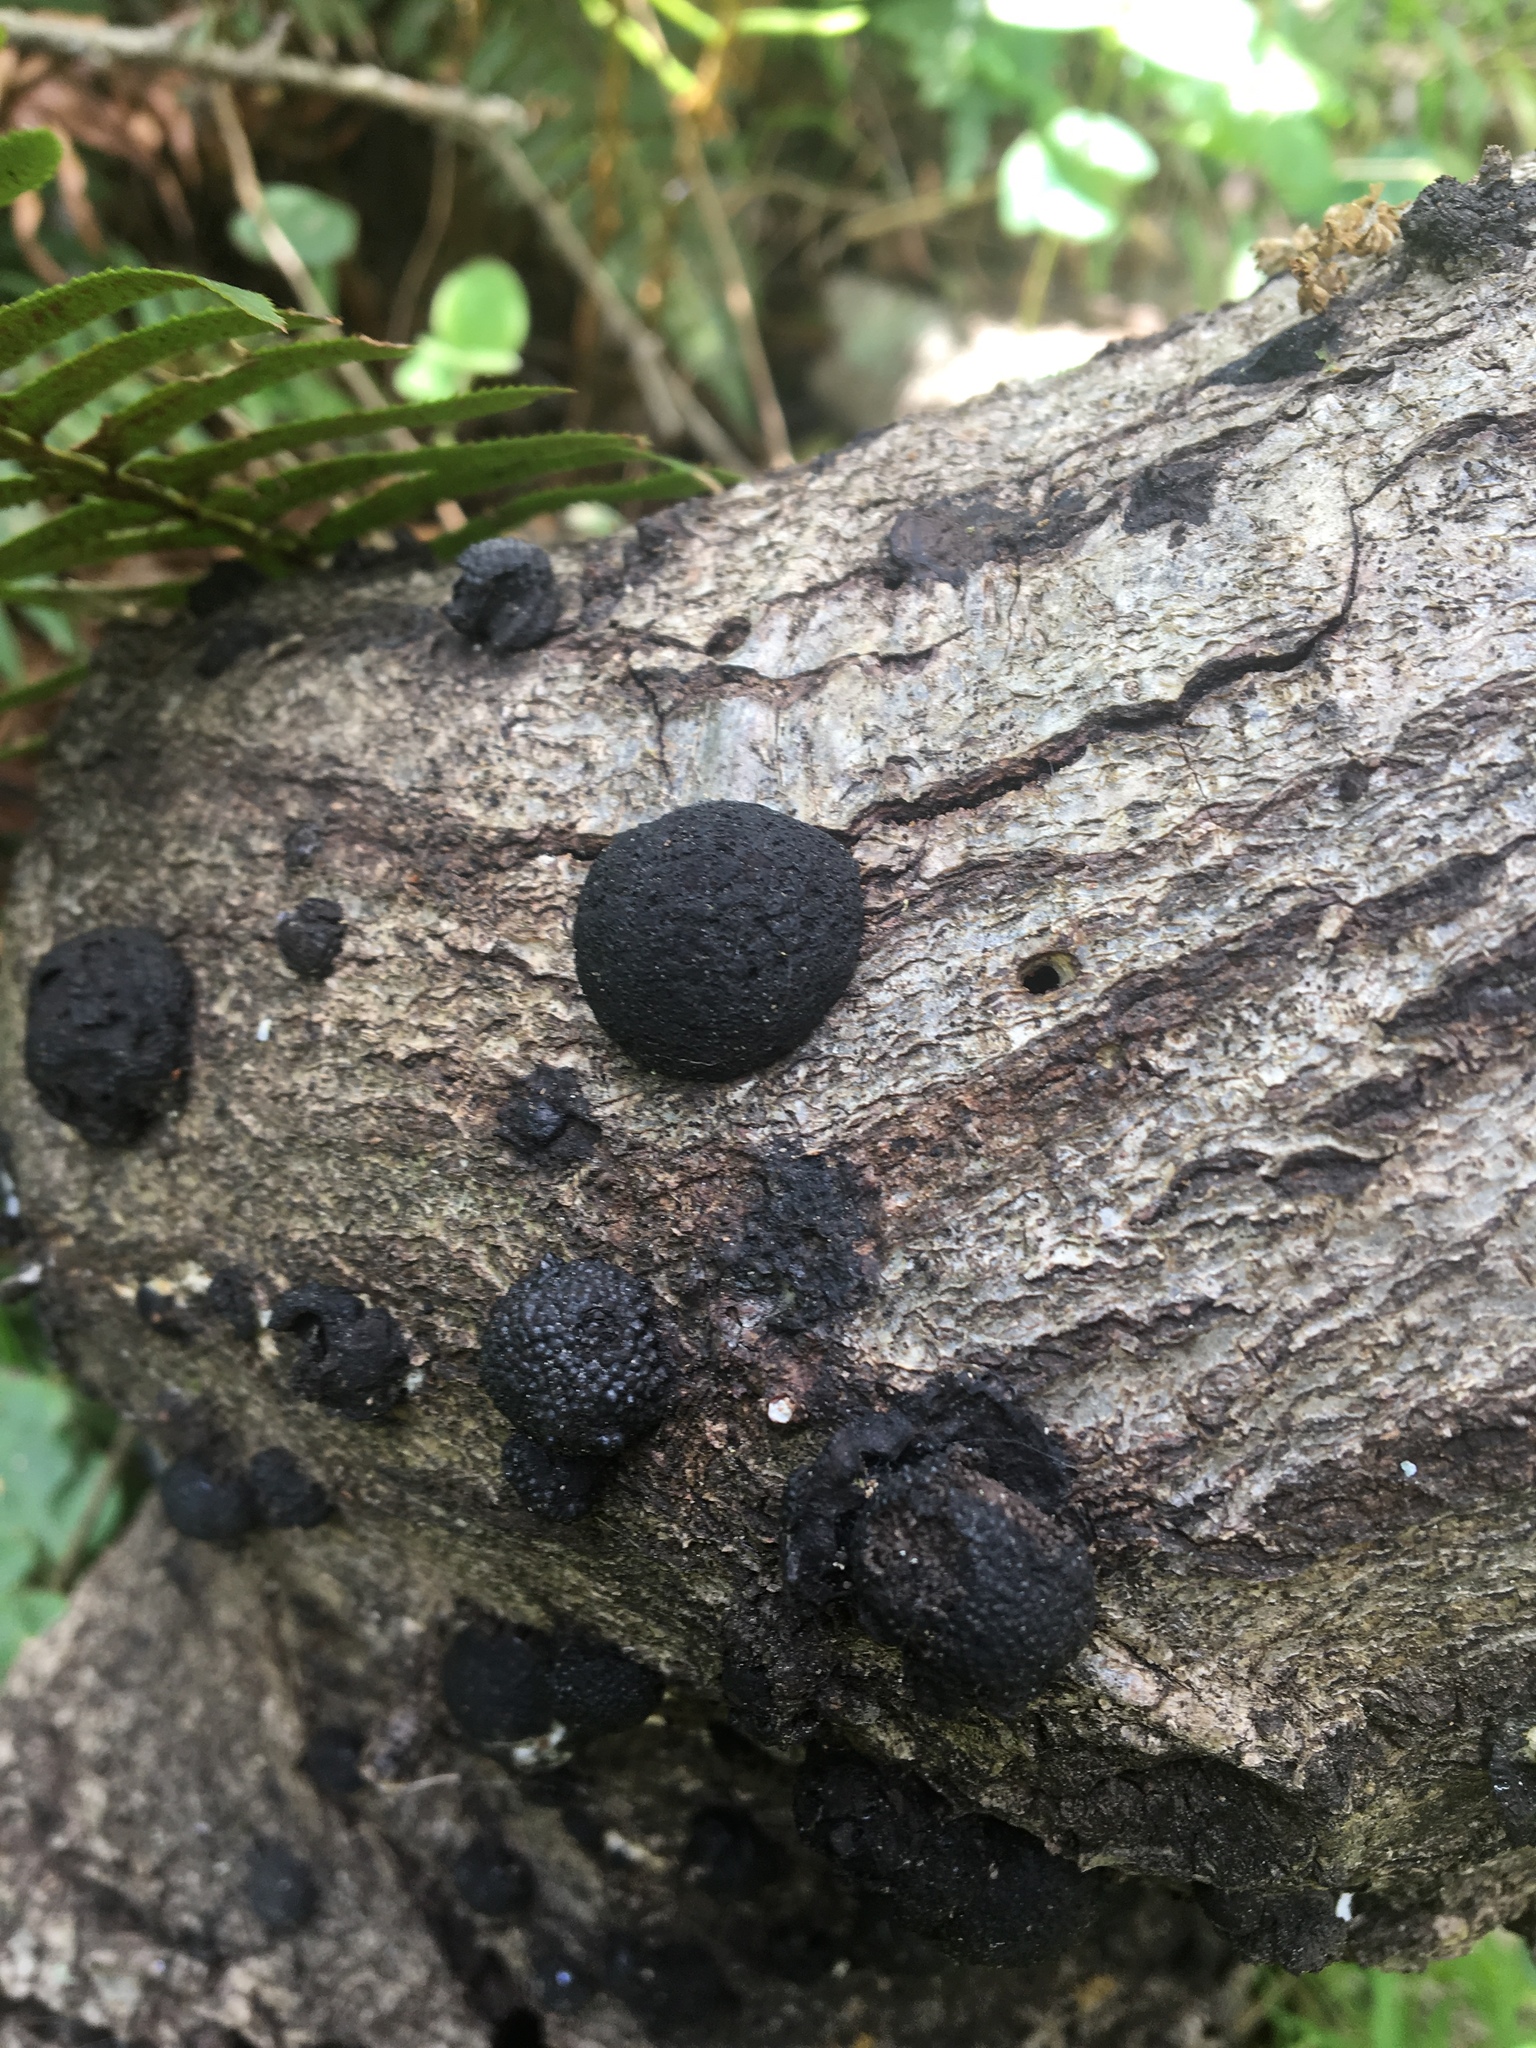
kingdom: Fungi
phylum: Ascomycota
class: Sordariomycetes
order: Xylariales
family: Hypoxylaceae
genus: Annulohypoxylon
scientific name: Annulohypoxylon thouarsianum
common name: Cramp balls
